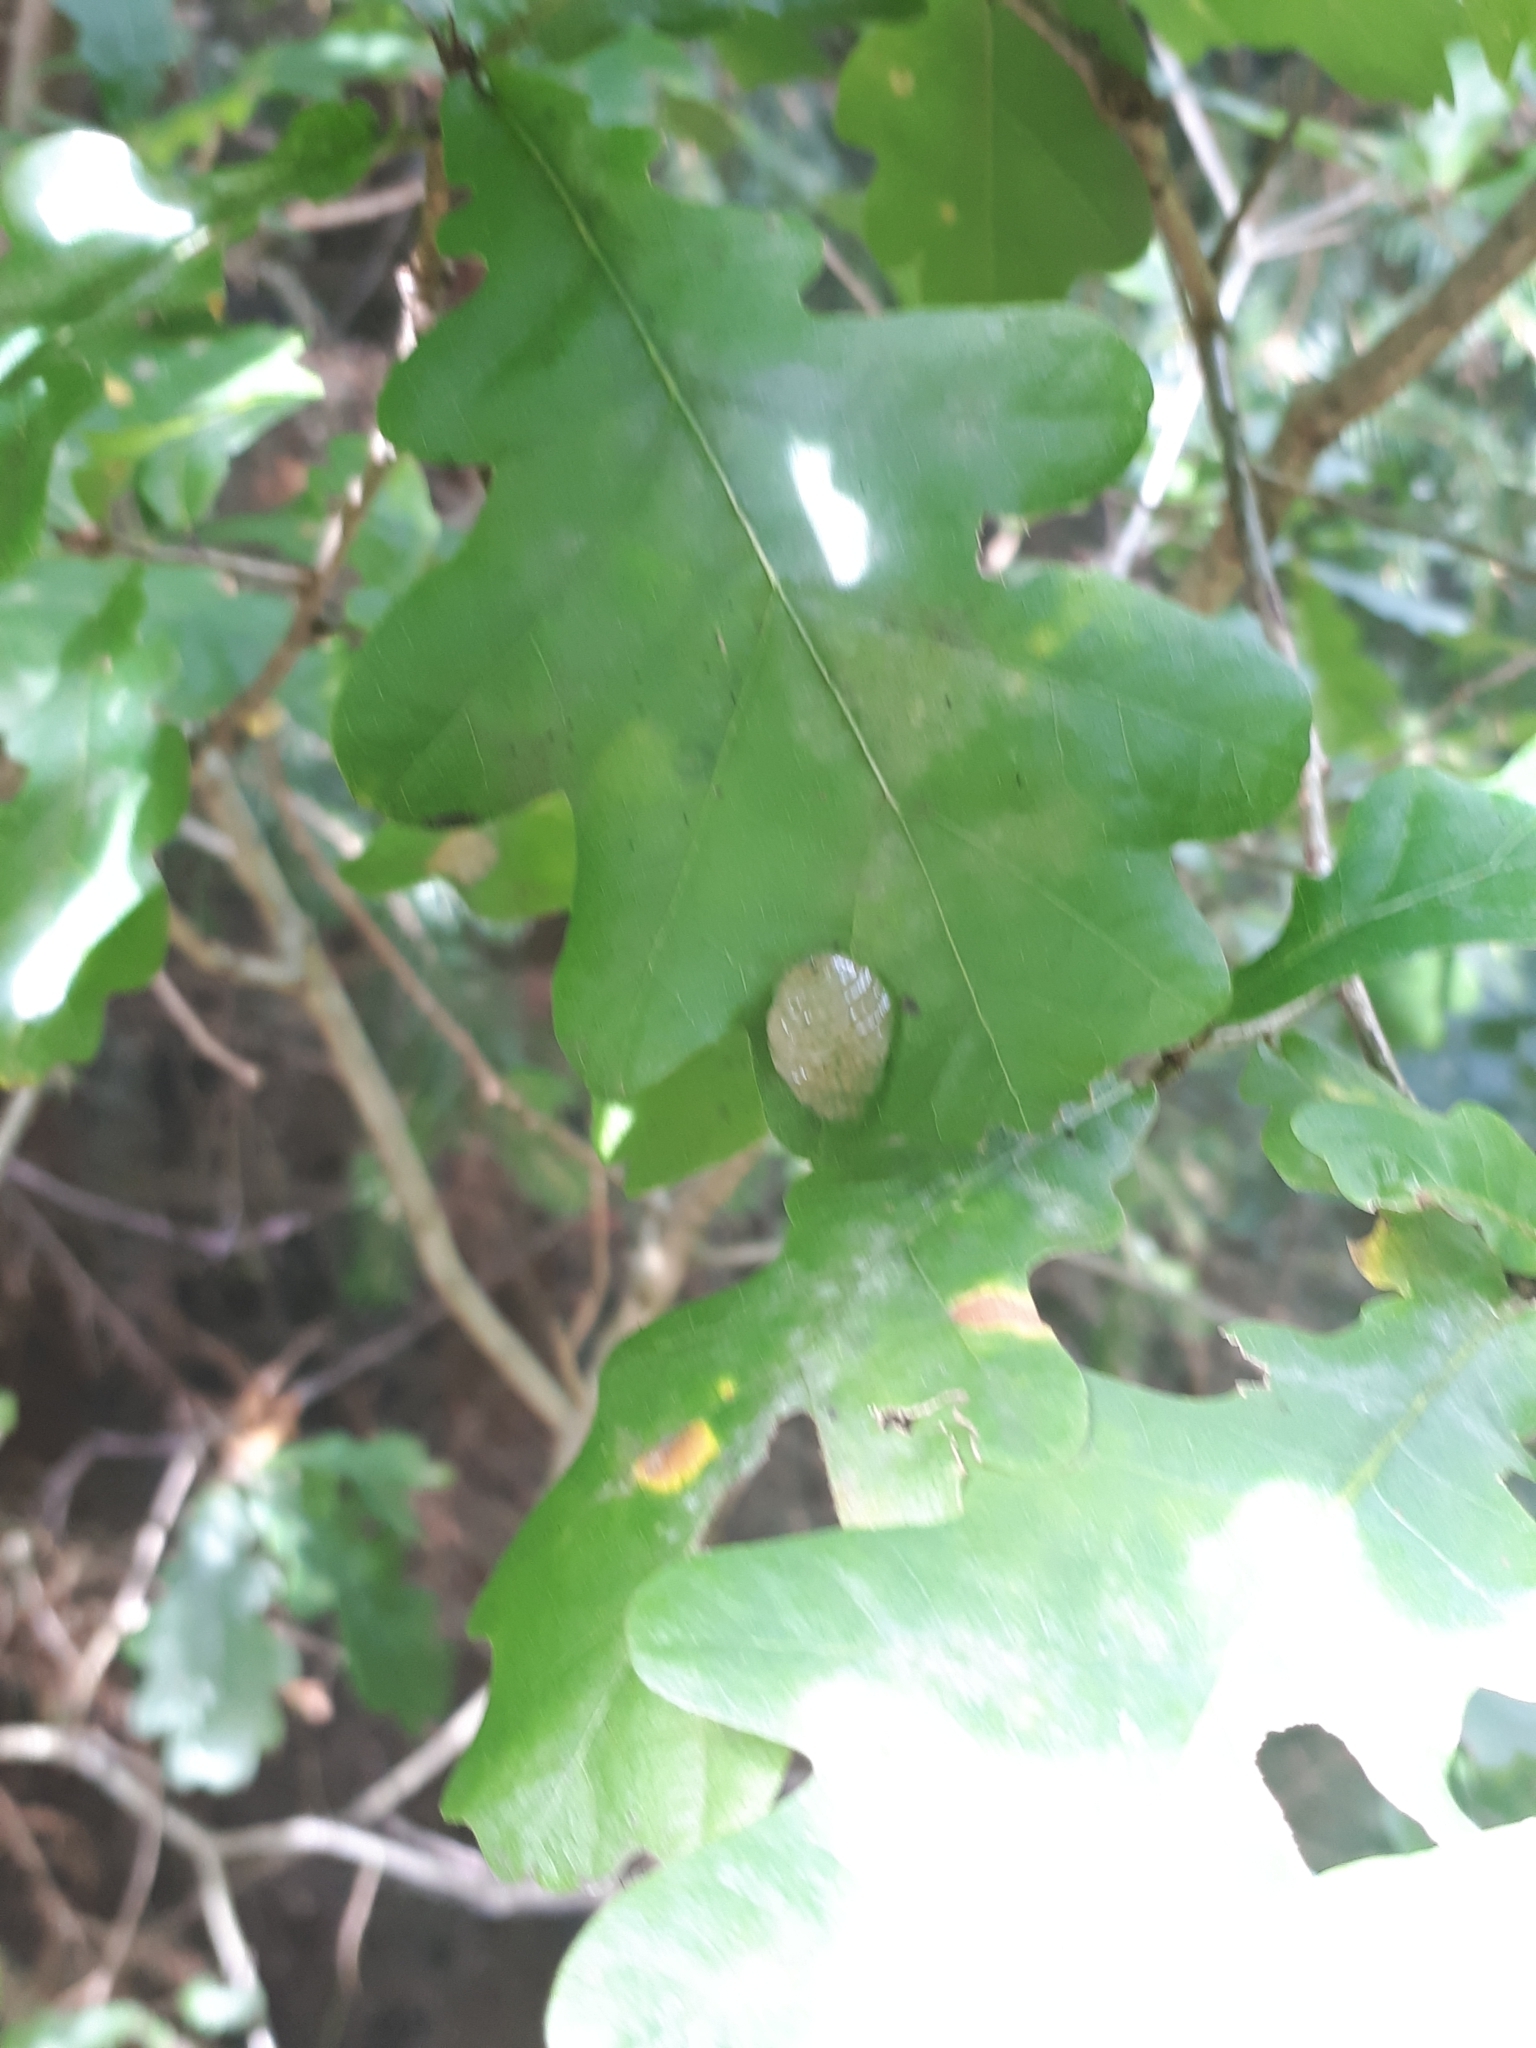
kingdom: Animalia
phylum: Arthropoda
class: Insecta
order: Trichoptera
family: Limnephilidae
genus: Glyphotaelius
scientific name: Glyphotaelius pellucidus
